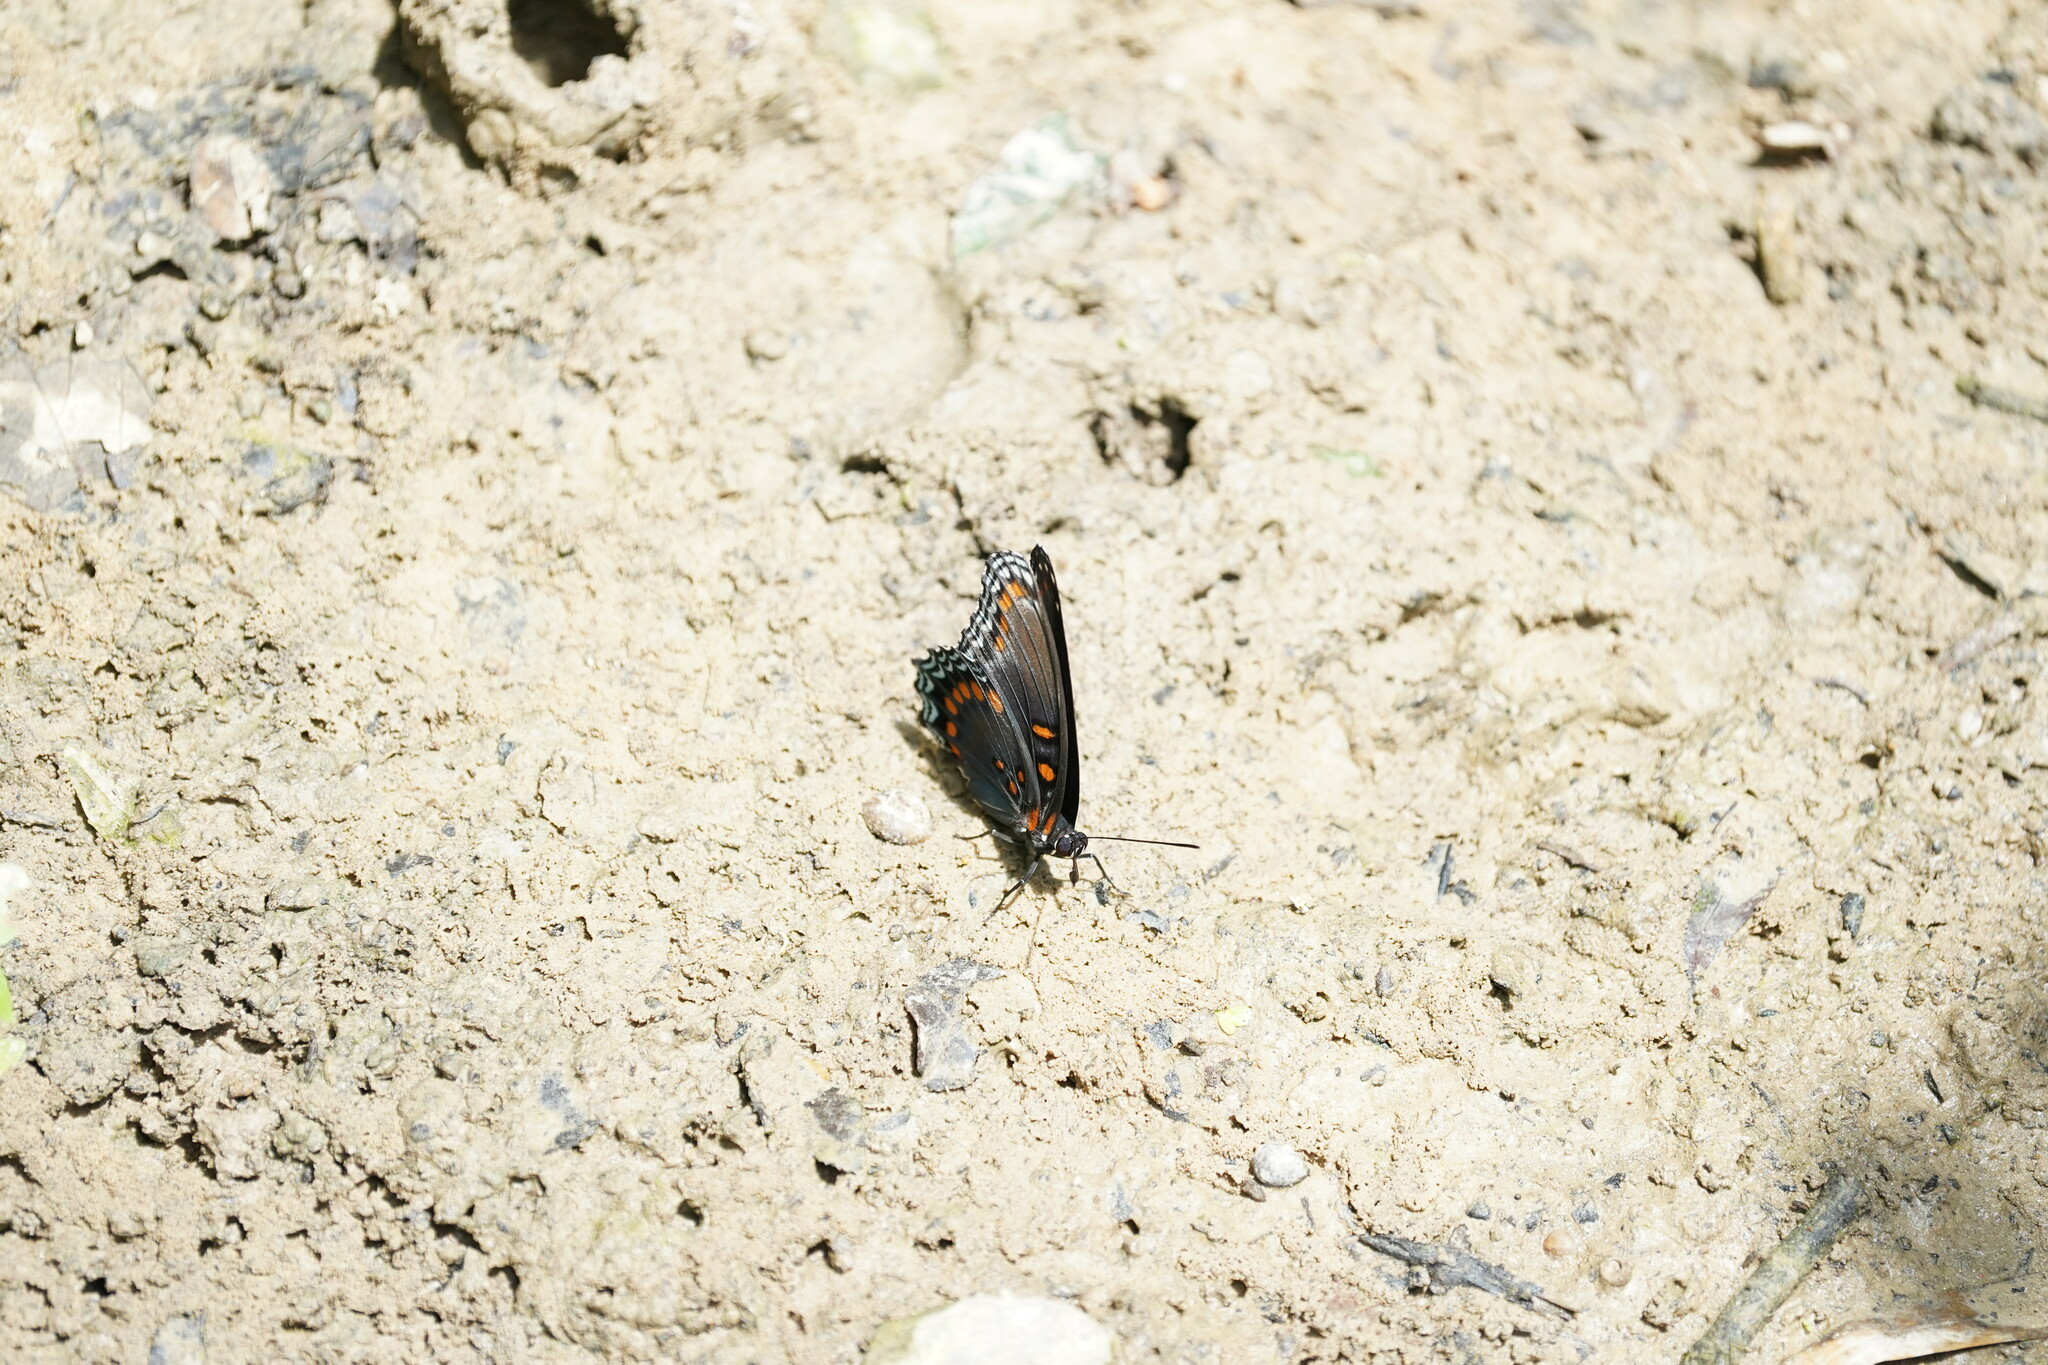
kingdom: Animalia
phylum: Arthropoda
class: Insecta
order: Lepidoptera
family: Nymphalidae
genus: Limenitis
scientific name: Limenitis arthemis
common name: Red-spotted admiral
